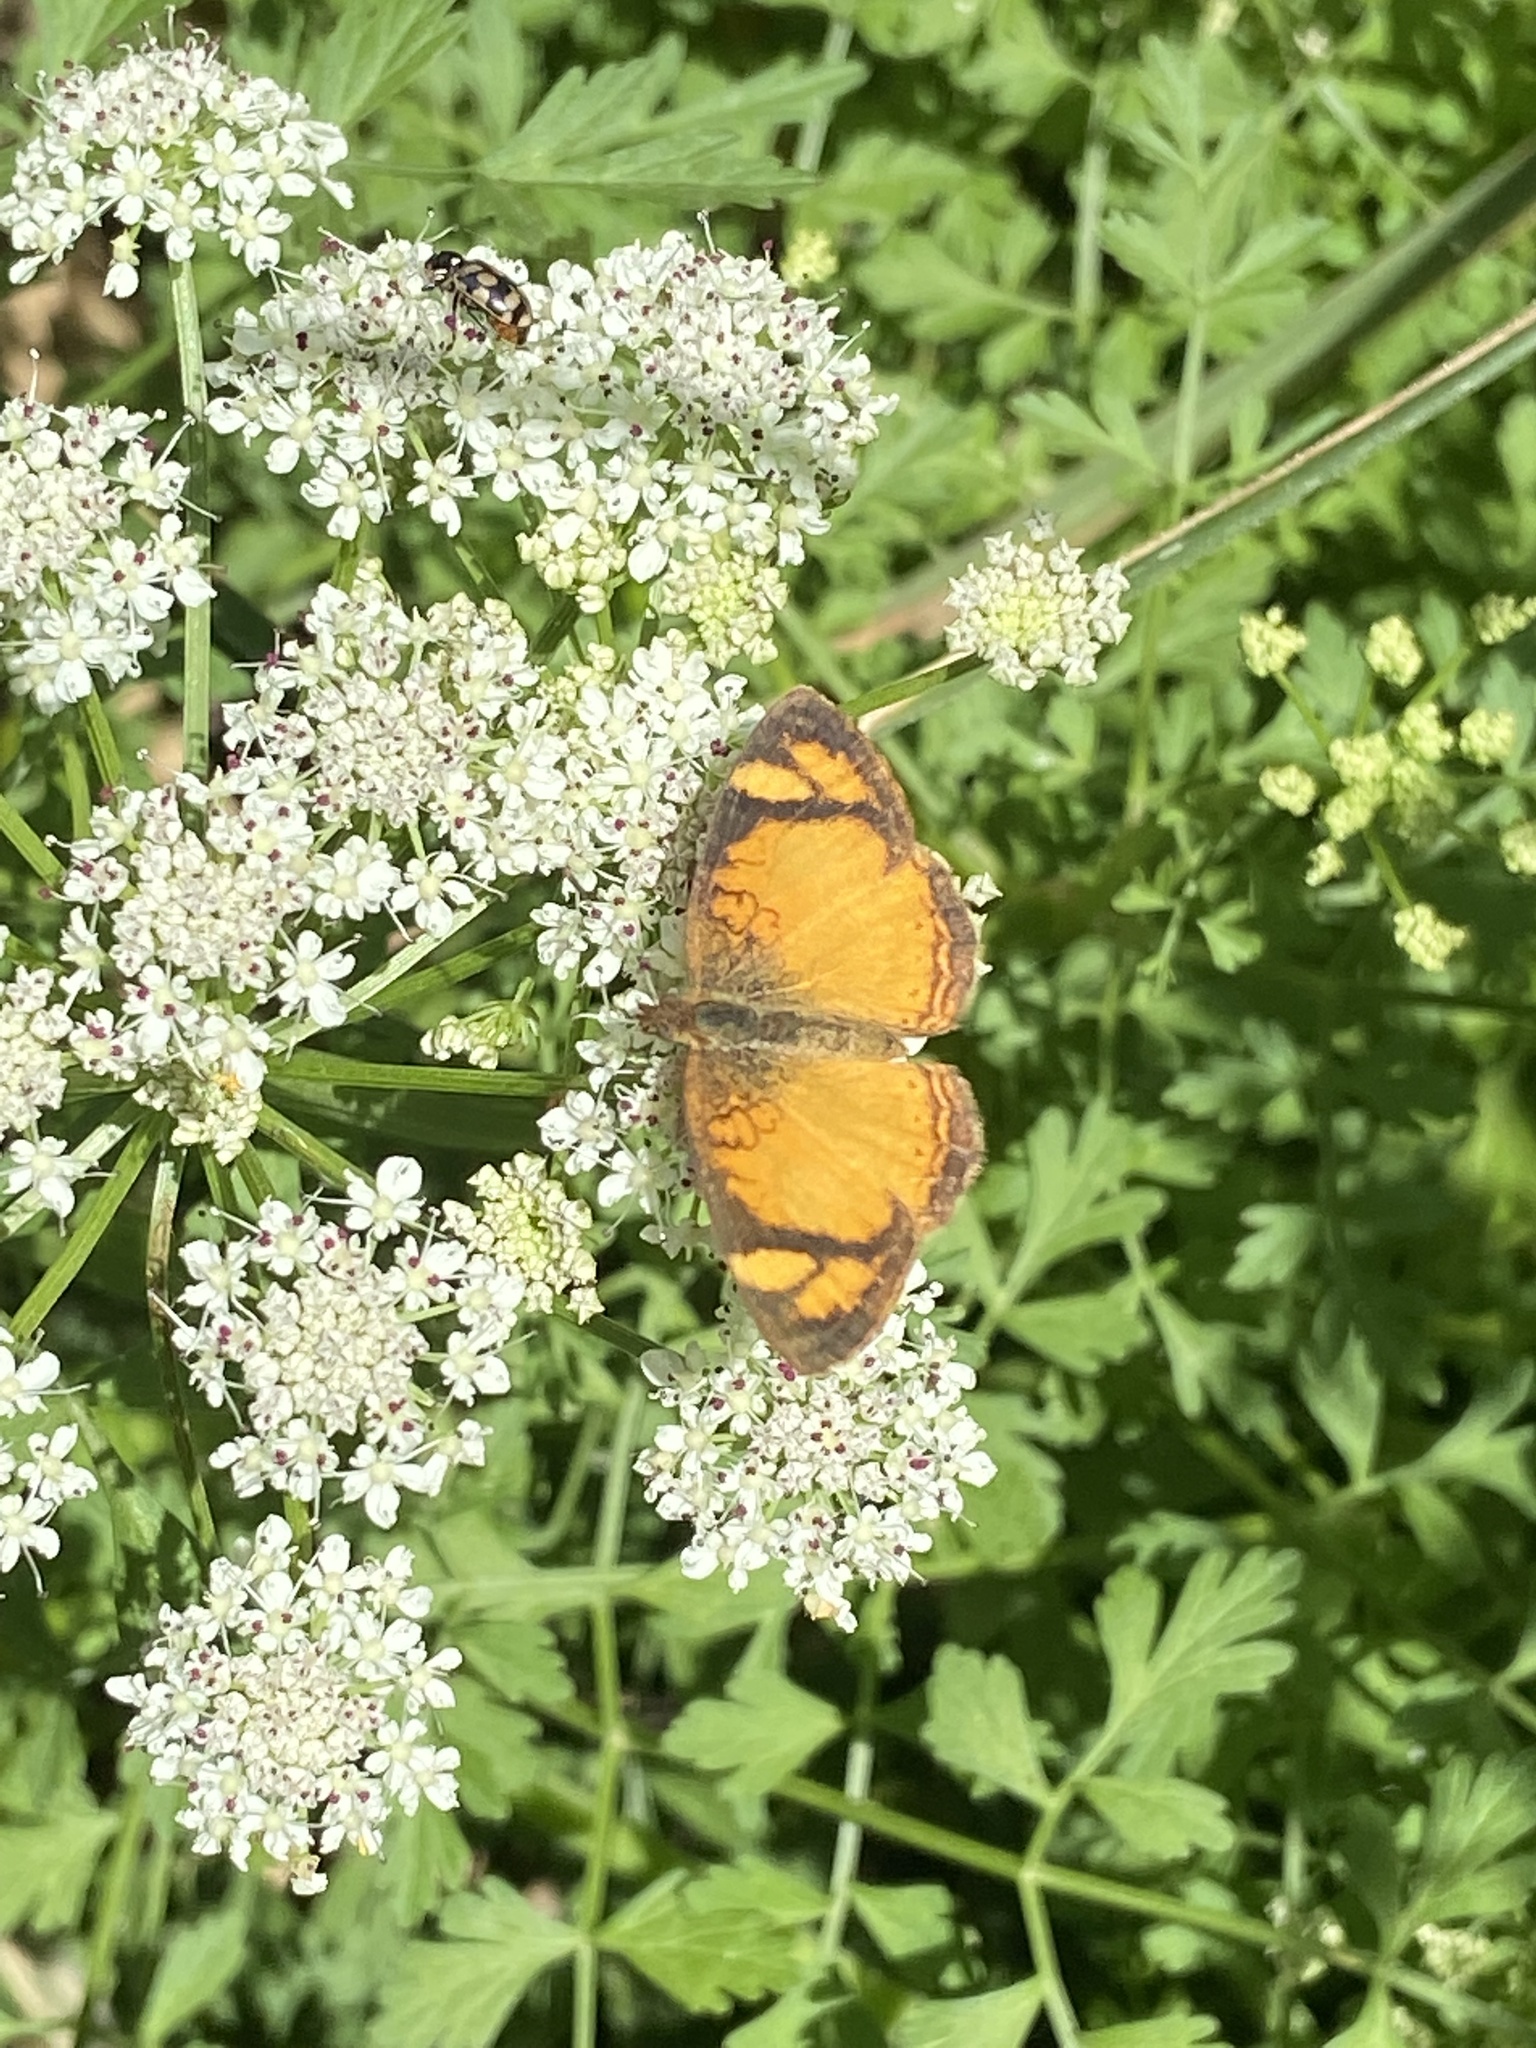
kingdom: Animalia
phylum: Arthropoda
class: Insecta
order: Lepidoptera
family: Nymphalidae
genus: Tegosa
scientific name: Tegosa claudina
